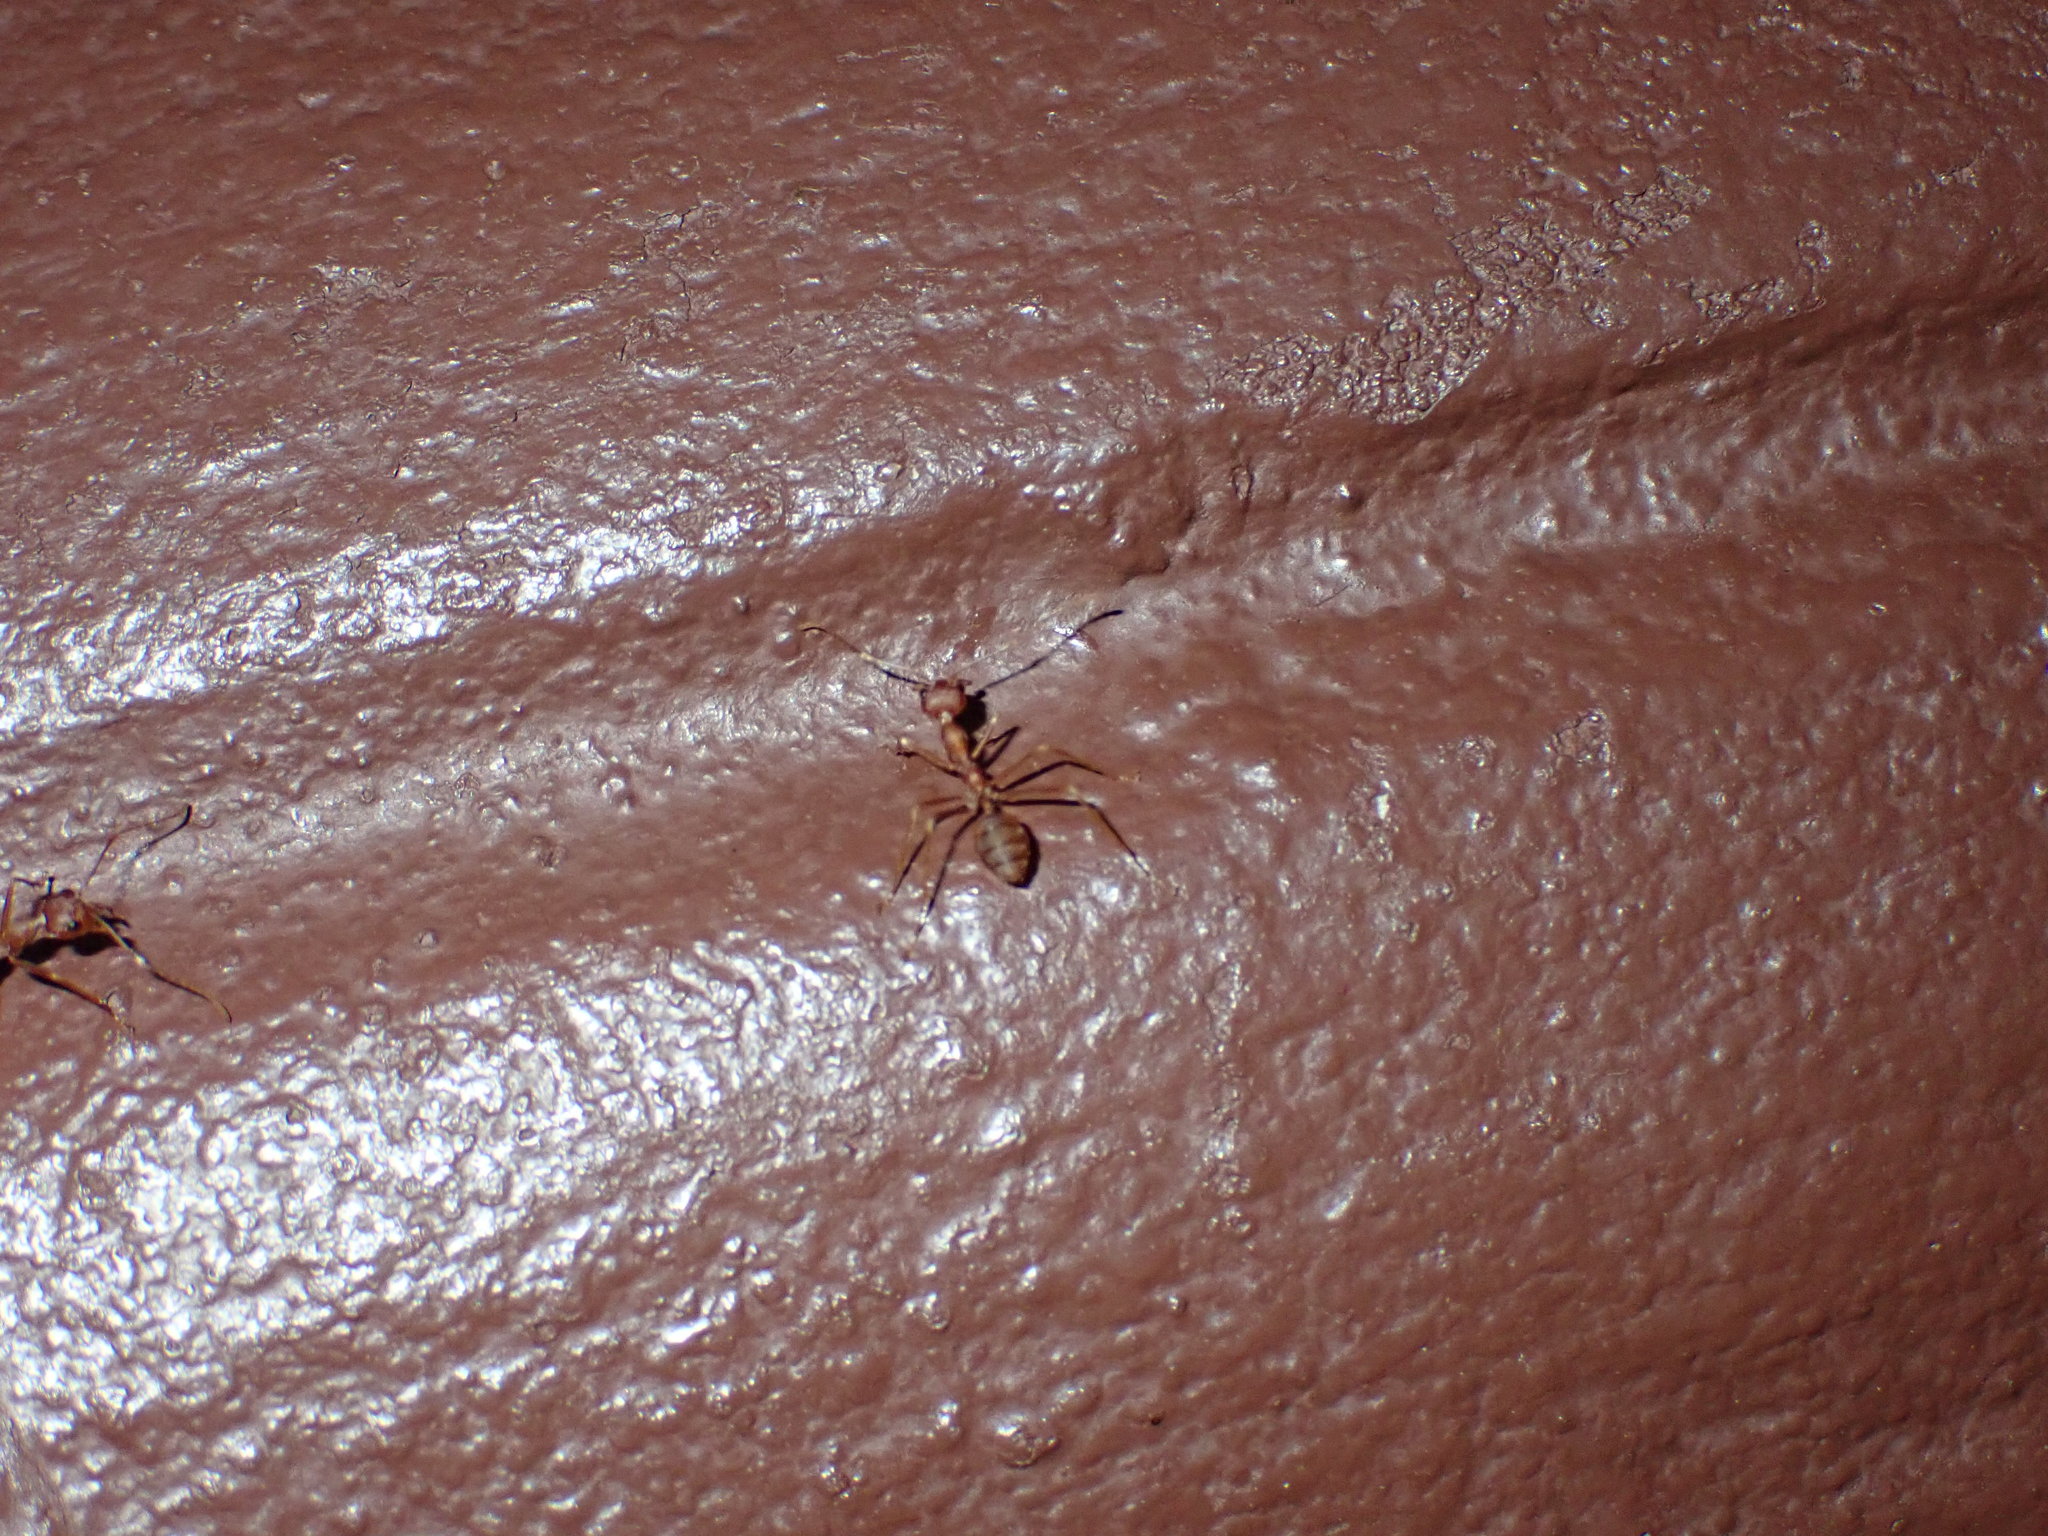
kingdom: Animalia
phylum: Arthropoda
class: Insecta
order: Hymenoptera
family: Formicidae
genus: Oecophylla
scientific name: Oecophylla smaragdina
